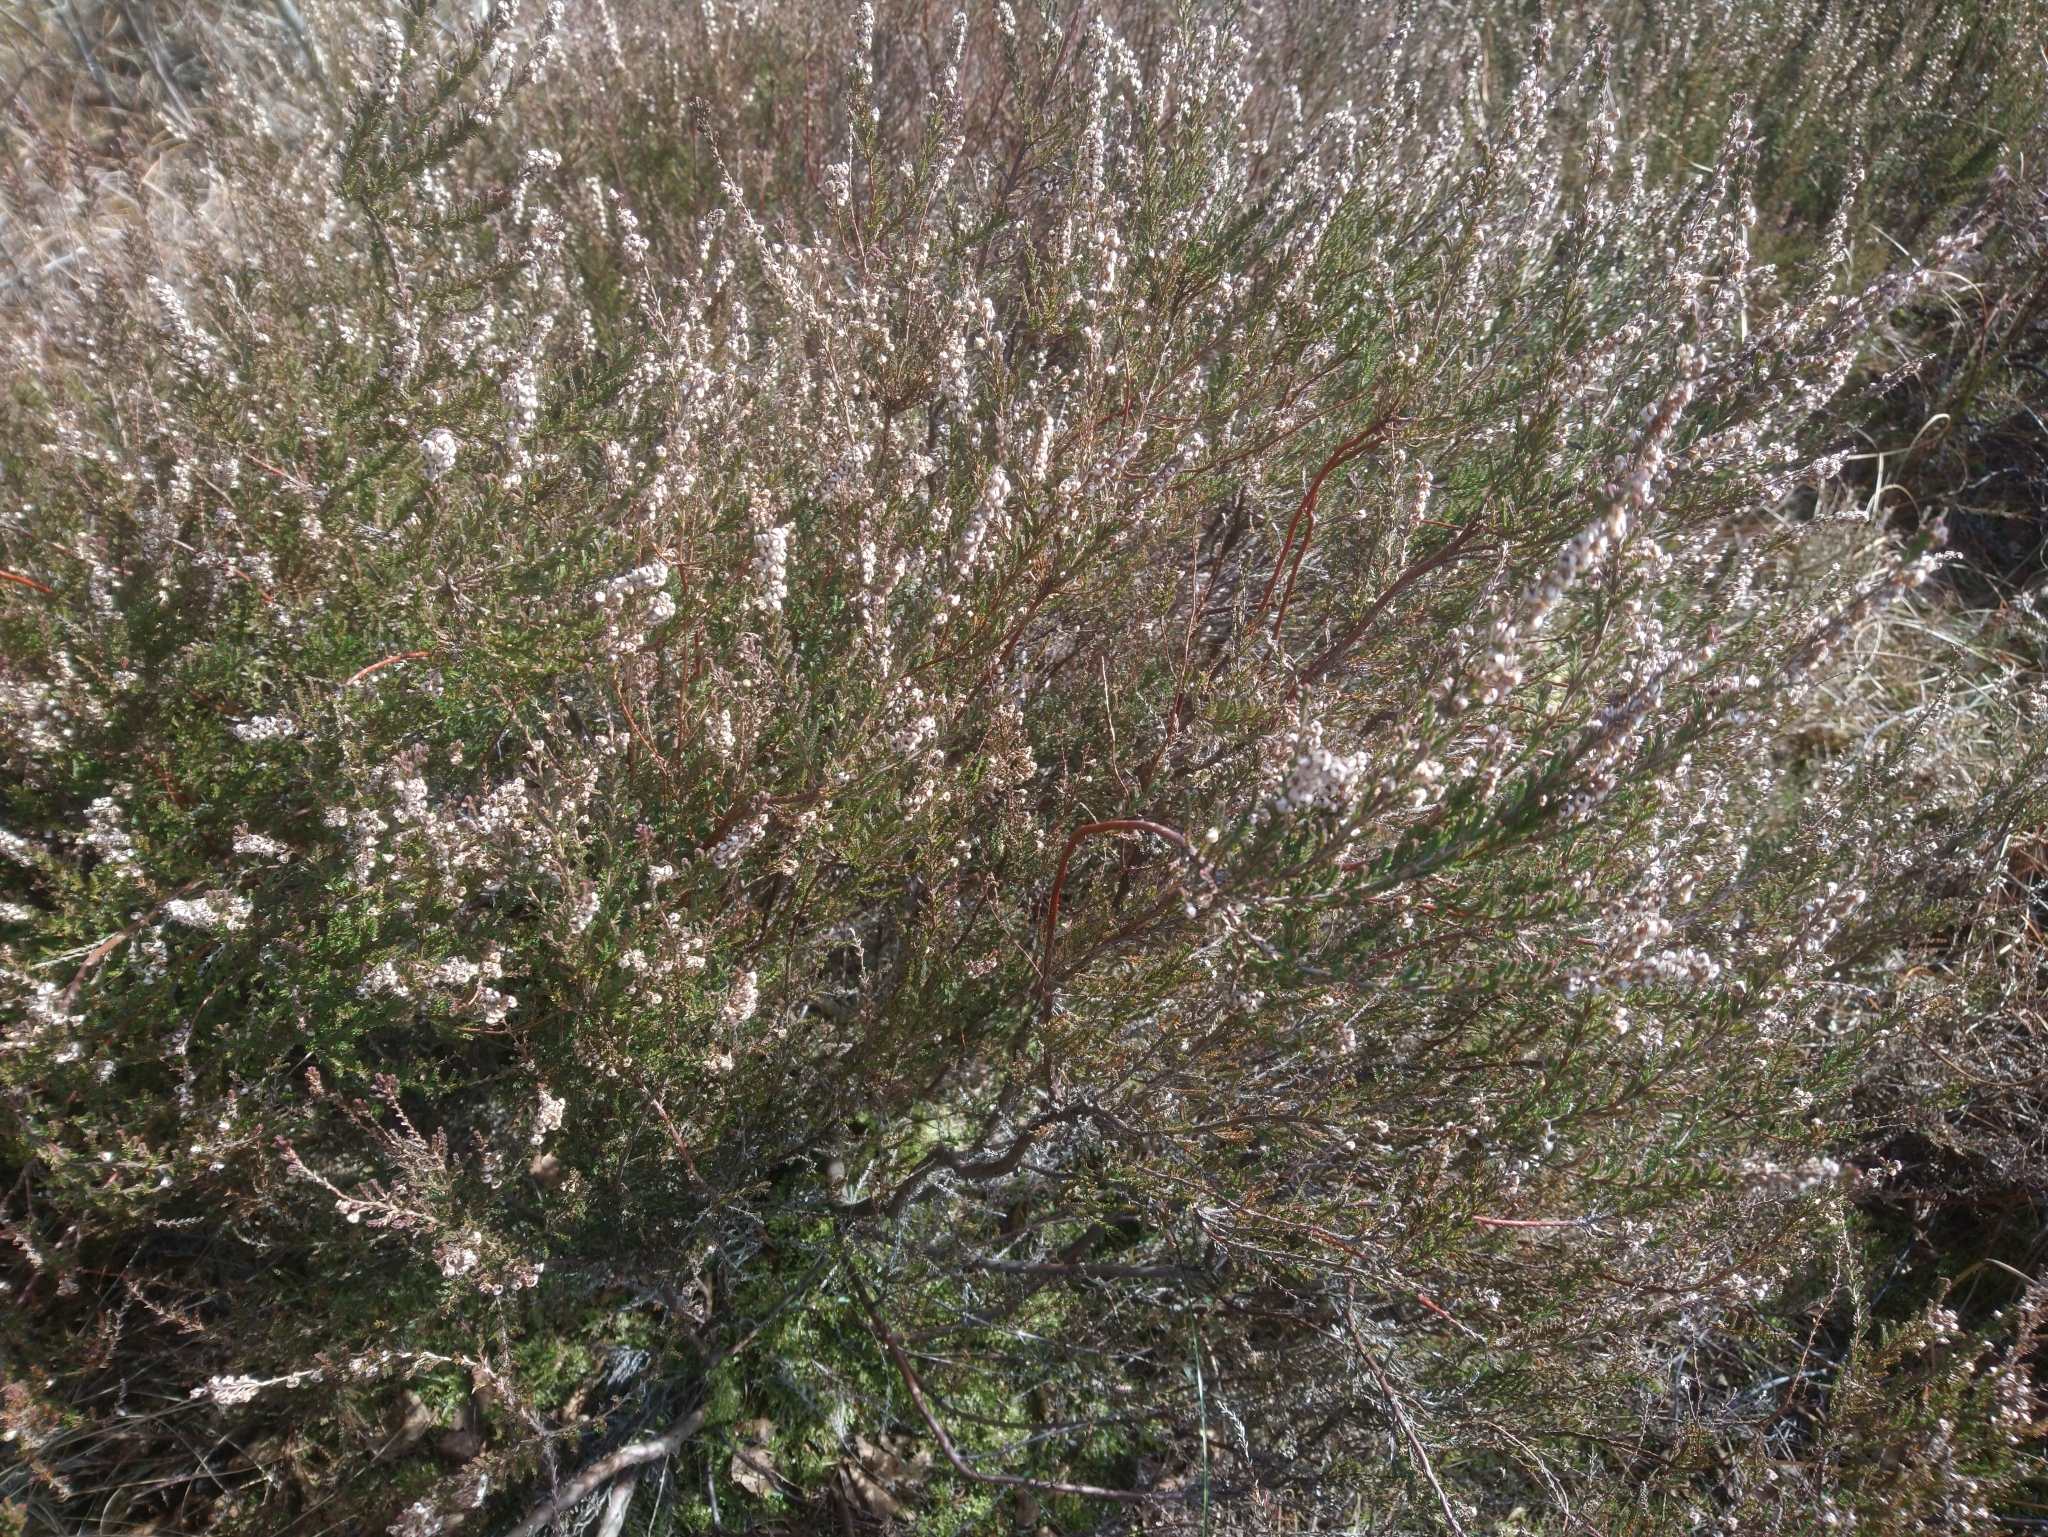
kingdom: Plantae
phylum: Tracheophyta
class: Magnoliopsida
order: Ericales
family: Ericaceae
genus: Calluna
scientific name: Calluna vulgaris
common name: Heather
